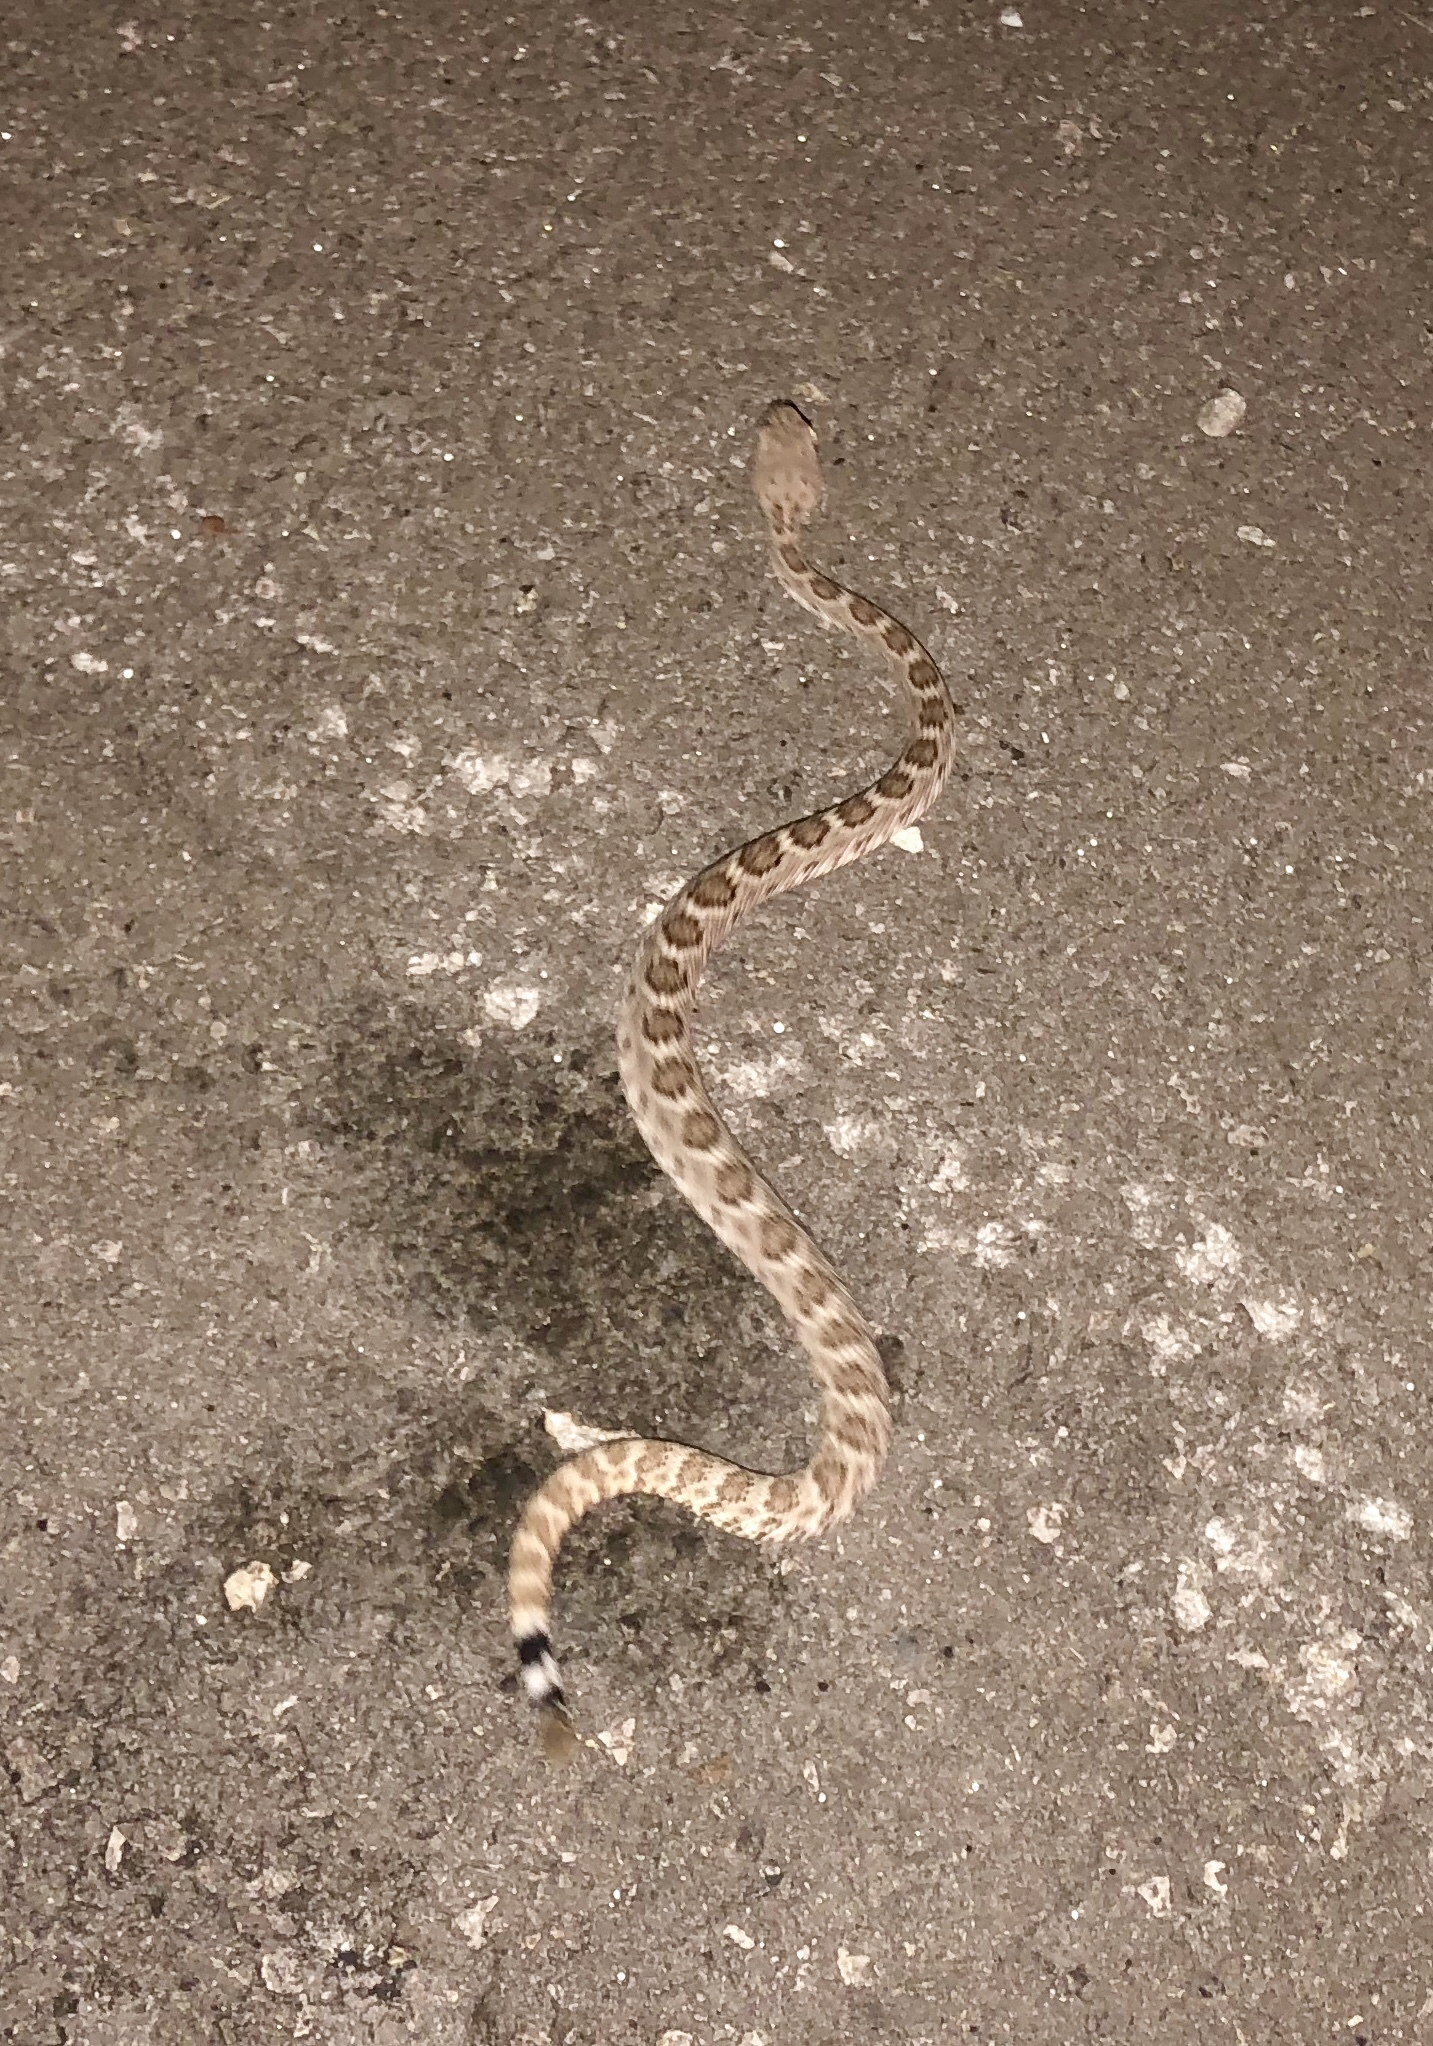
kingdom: Animalia
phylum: Chordata
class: Squamata
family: Viperidae
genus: Crotalus
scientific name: Crotalus atrox
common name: Western diamond-backed rattlesnake
